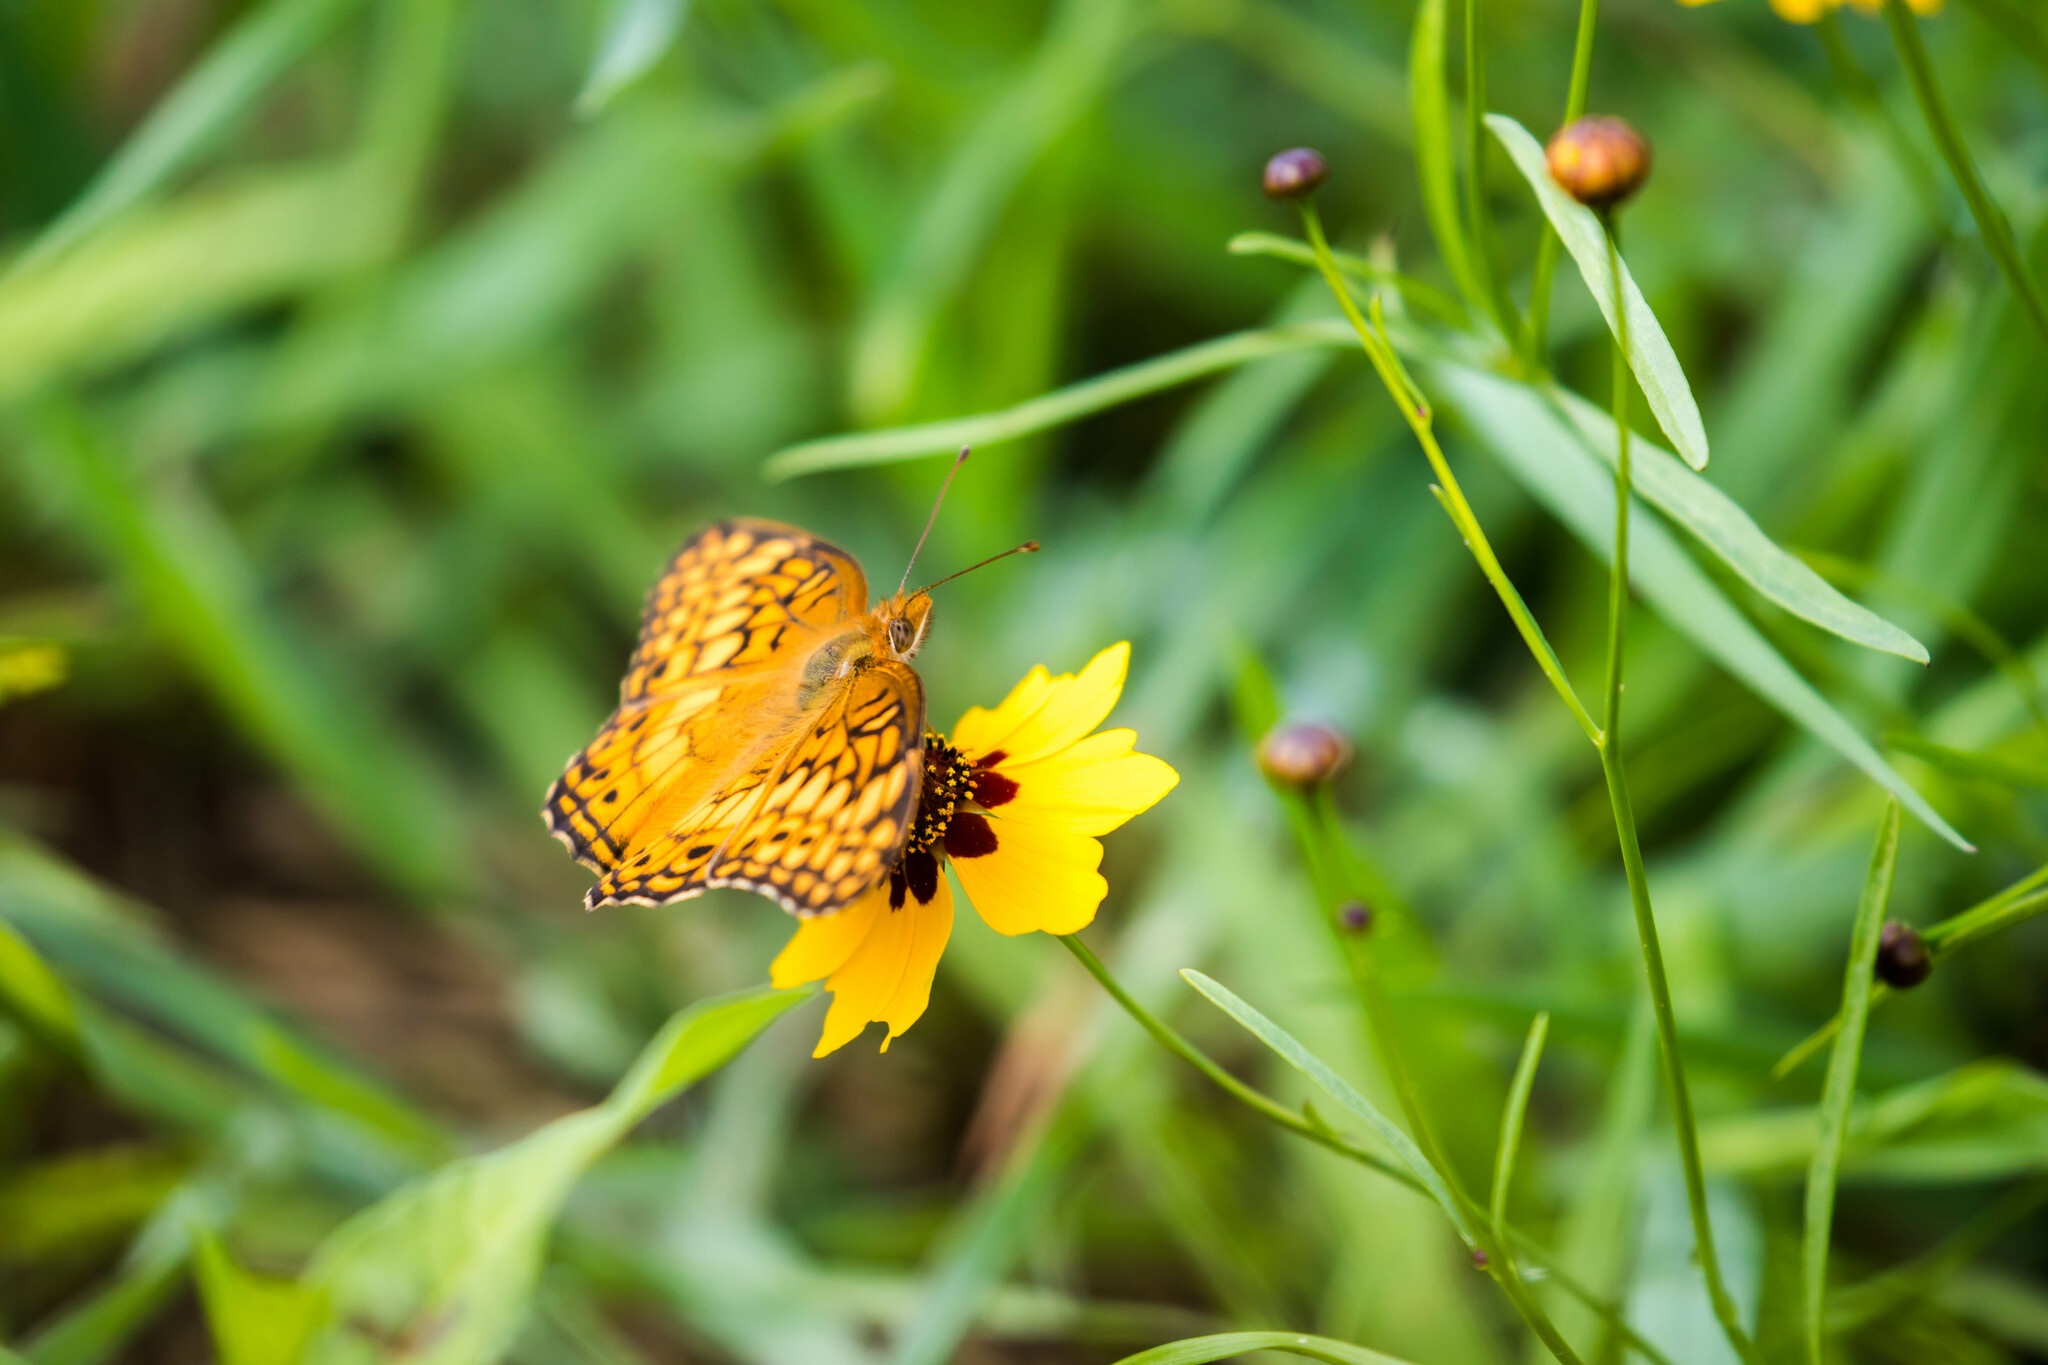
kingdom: Animalia
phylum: Arthropoda
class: Insecta
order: Lepidoptera
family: Nymphalidae
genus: Euptoieta
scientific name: Euptoieta claudia
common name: Variegated fritillary
